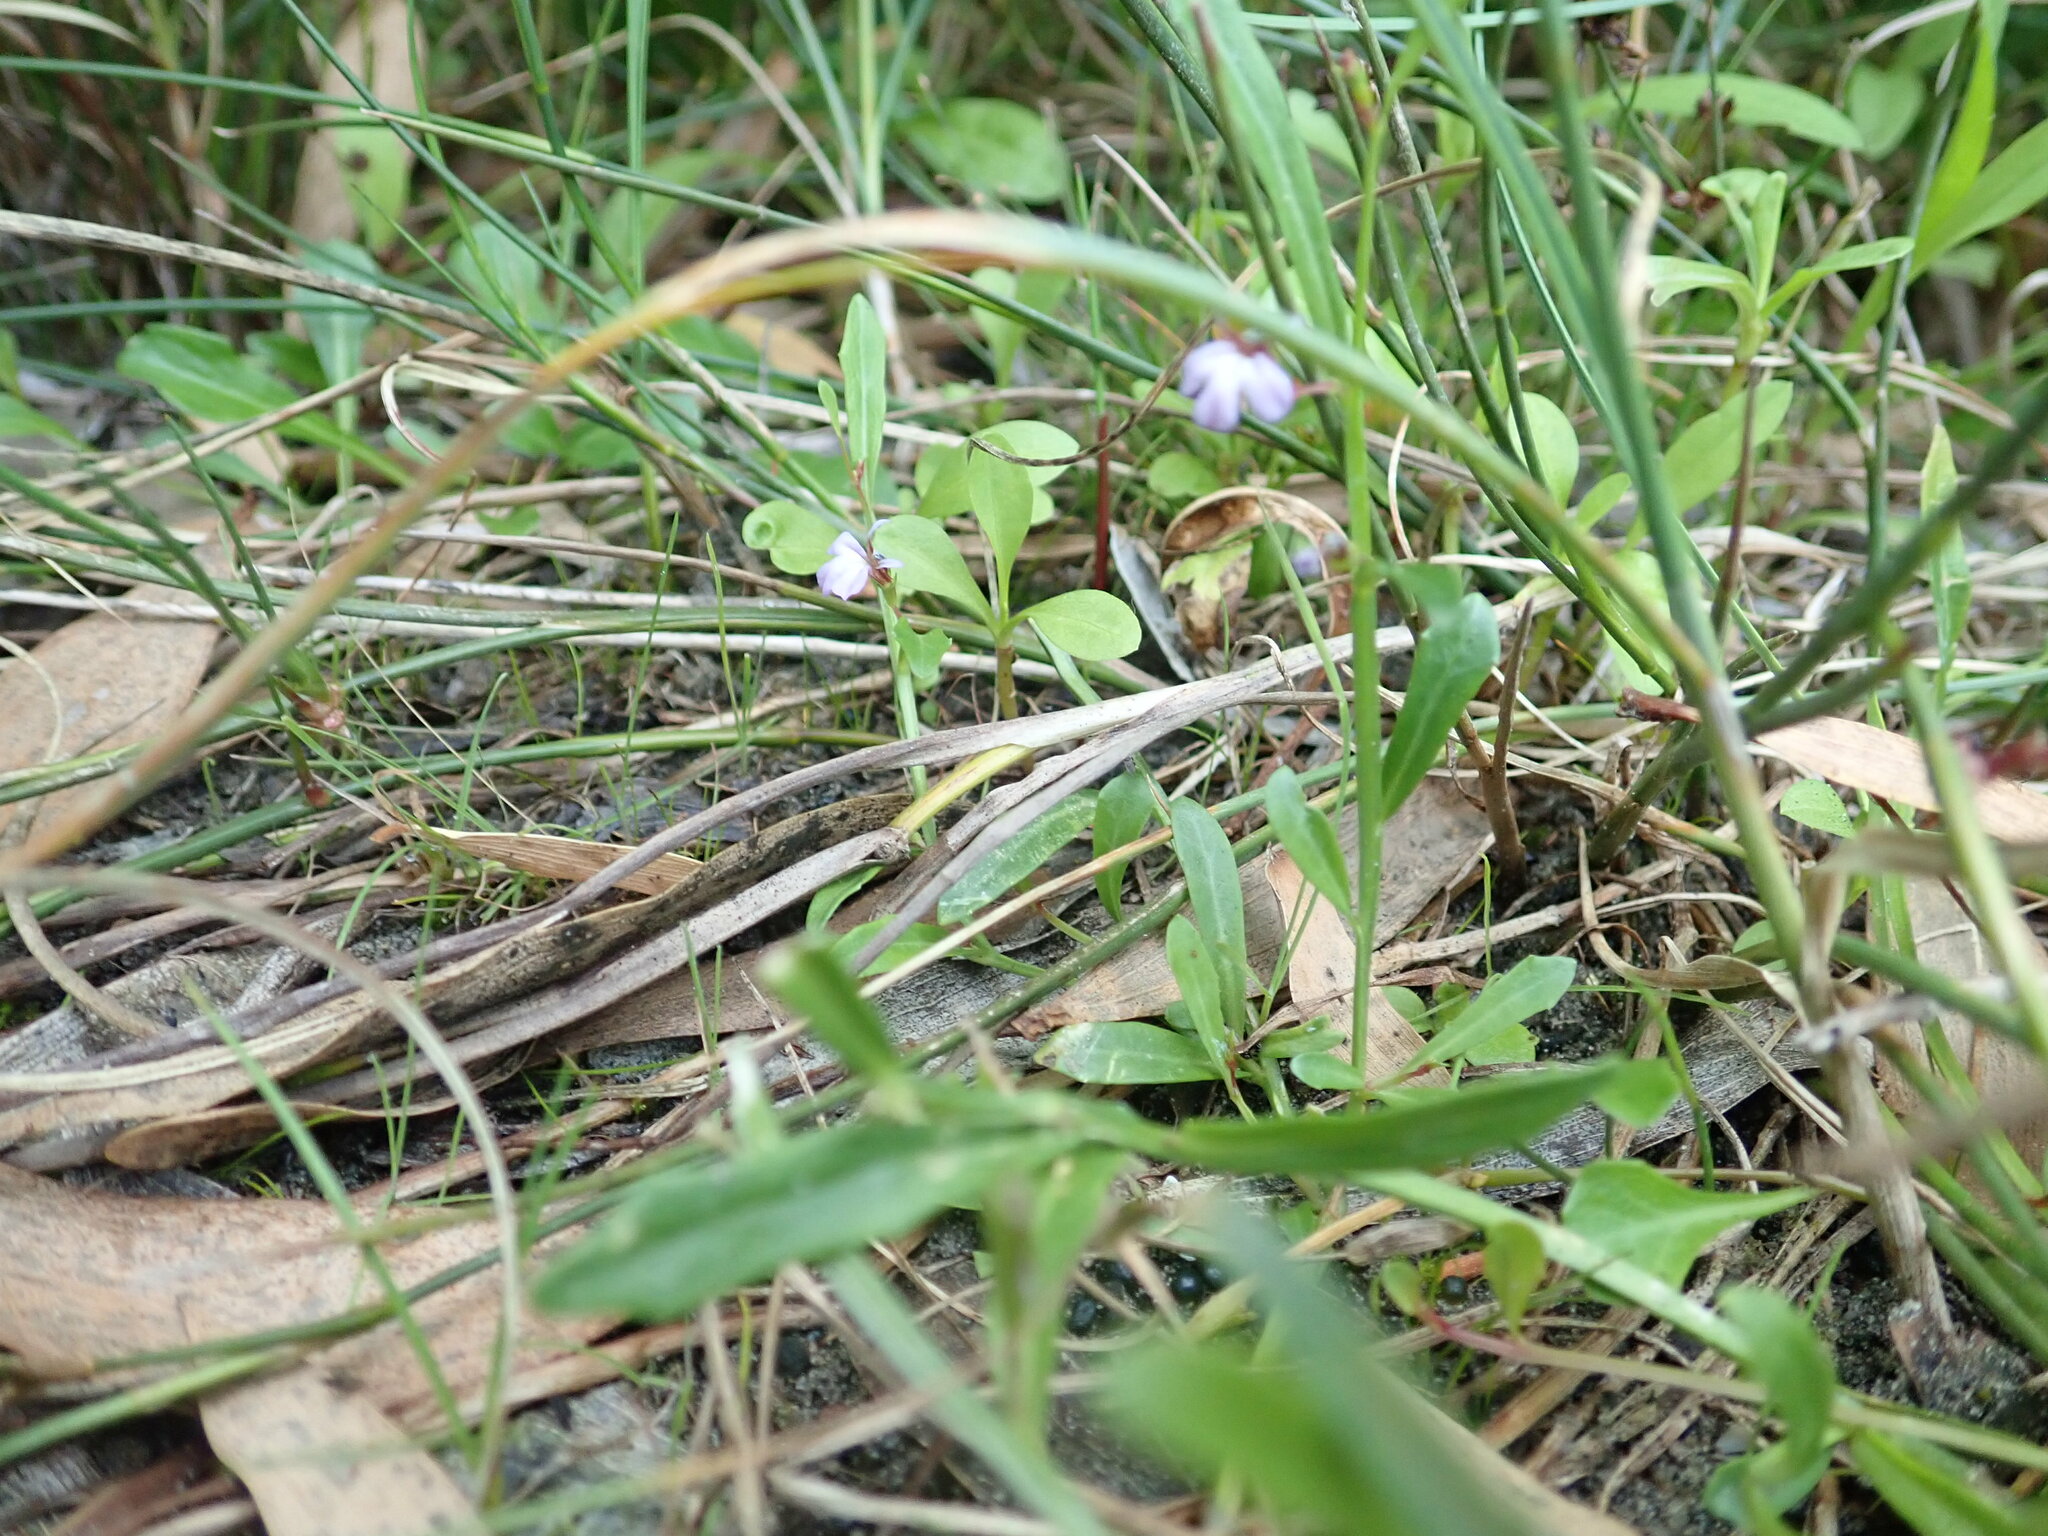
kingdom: Plantae
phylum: Tracheophyta
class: Magnoliopsida
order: Asterales
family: Campanulaceae
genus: Lobelia
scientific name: Lobelia anceps
